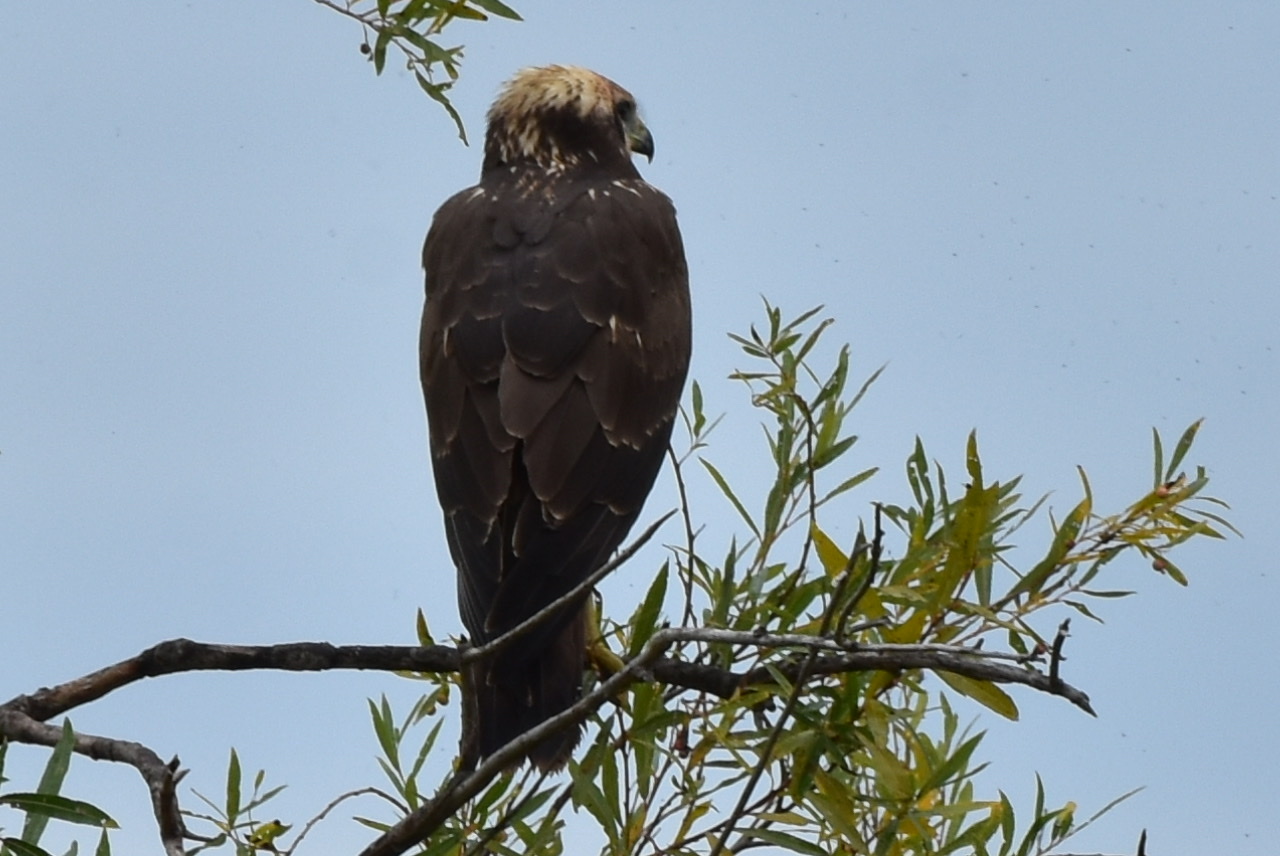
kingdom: Animalia
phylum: Chordata
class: Aves
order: Accipitriformes
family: Accipitridae
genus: Circus
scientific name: Circus spilonotus
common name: Eastern marsh-harrier
